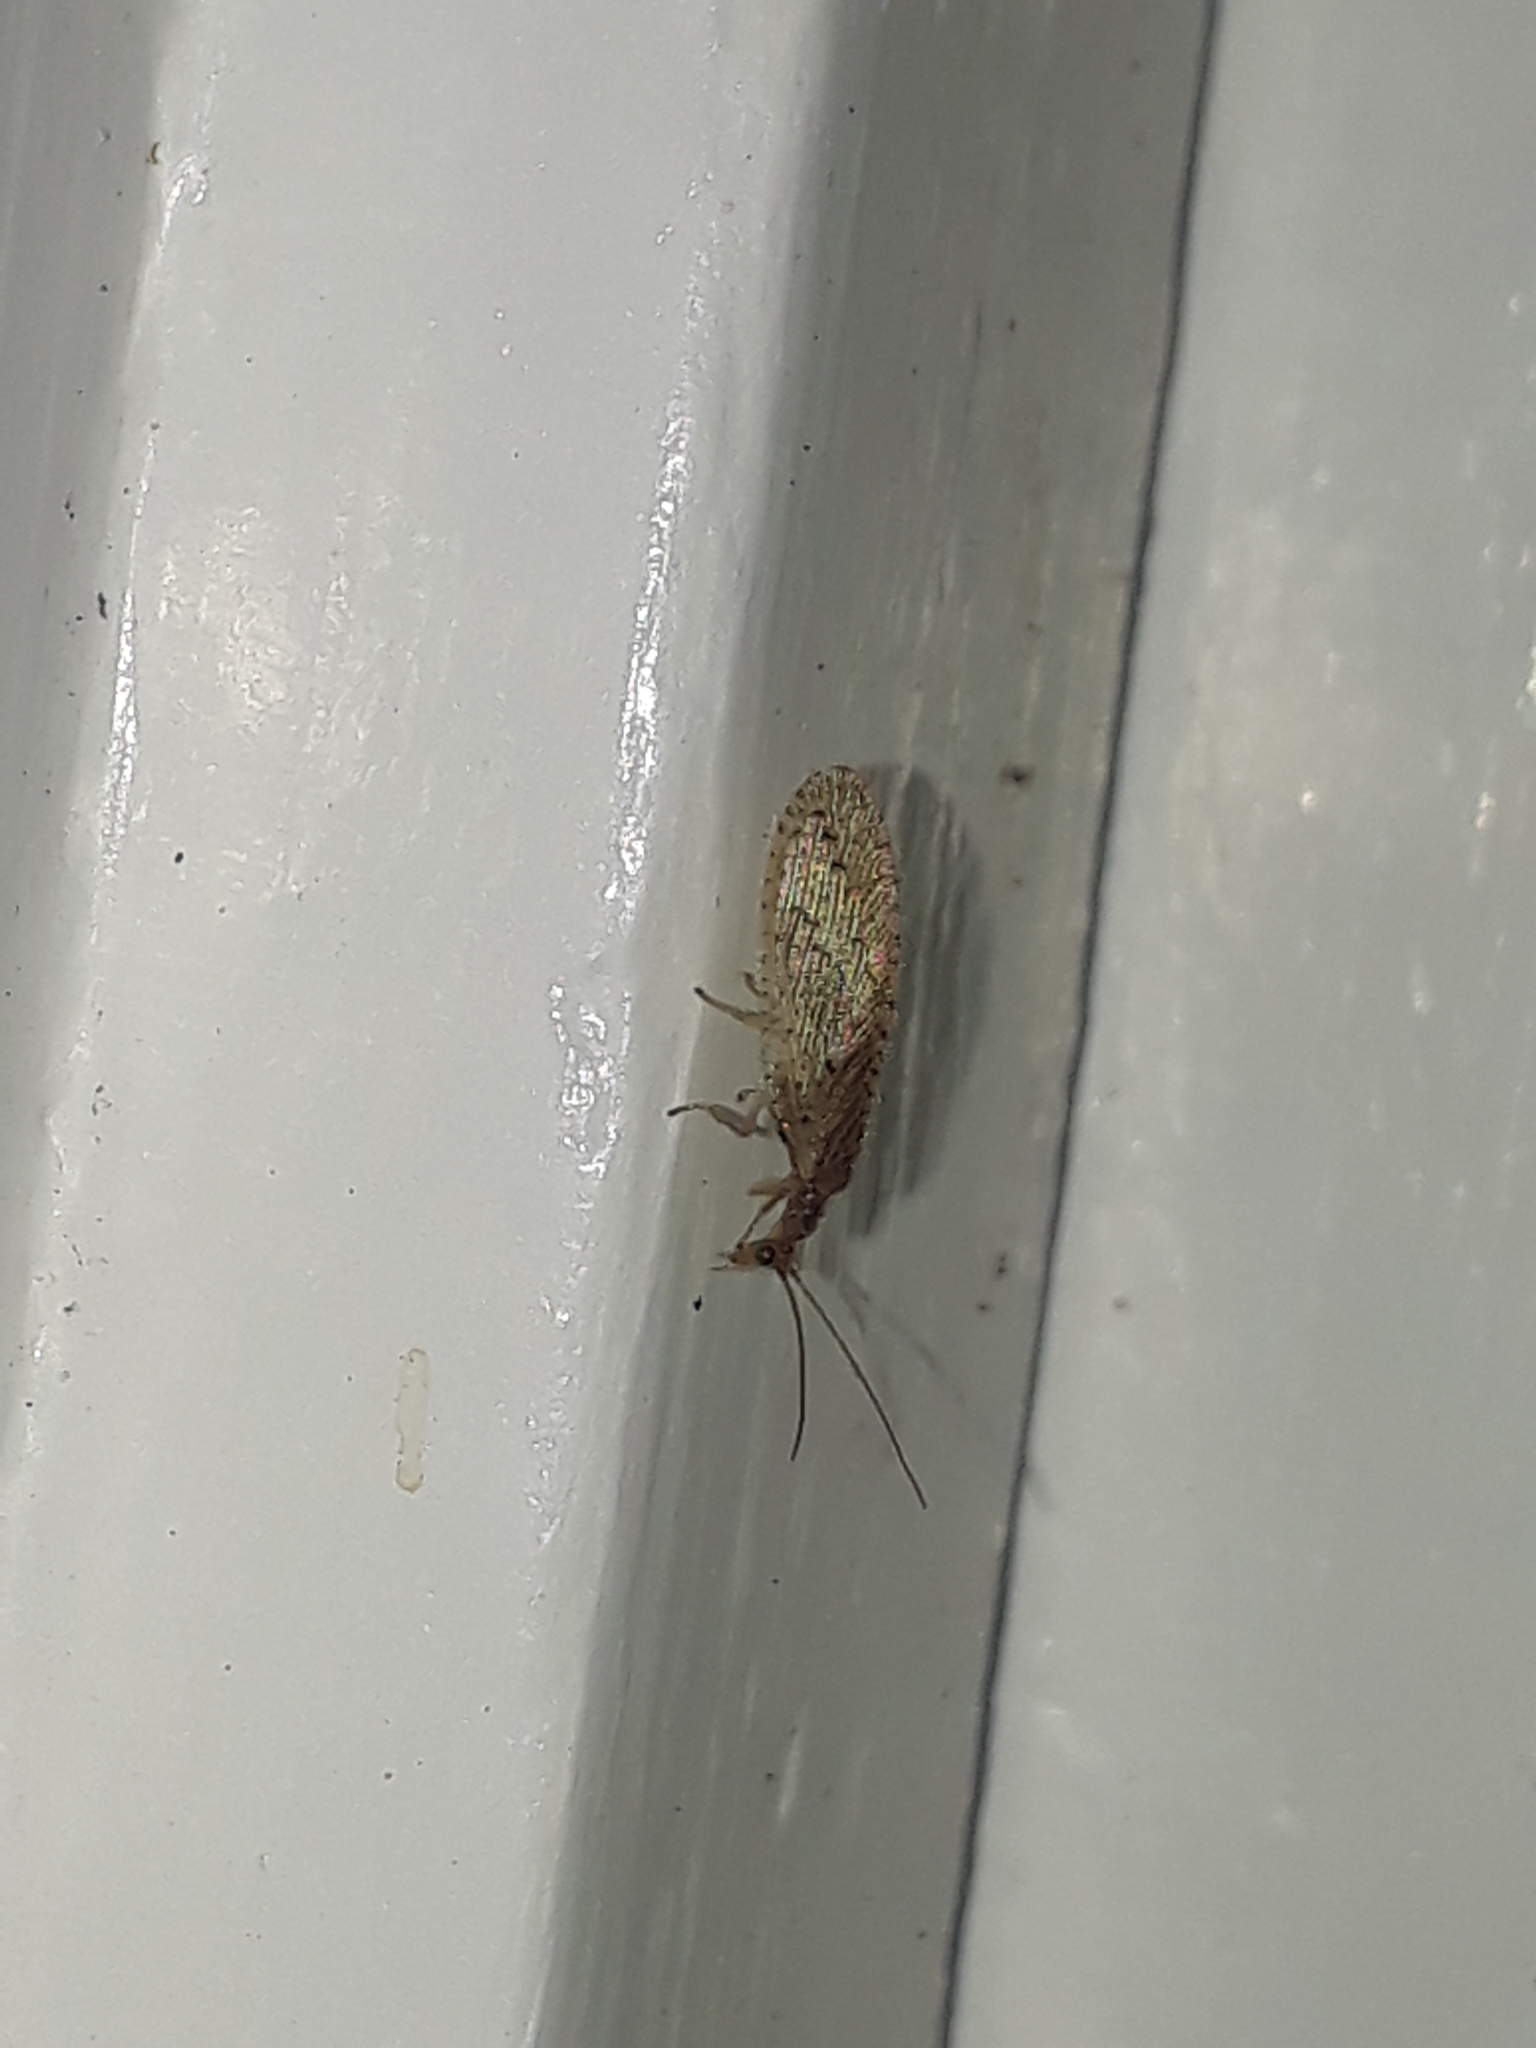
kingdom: Animalia
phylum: Arthropoda
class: Insecta
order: Neuroptera
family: Hemerobiidae
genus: Micromus
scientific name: Micromus tasmaniae
